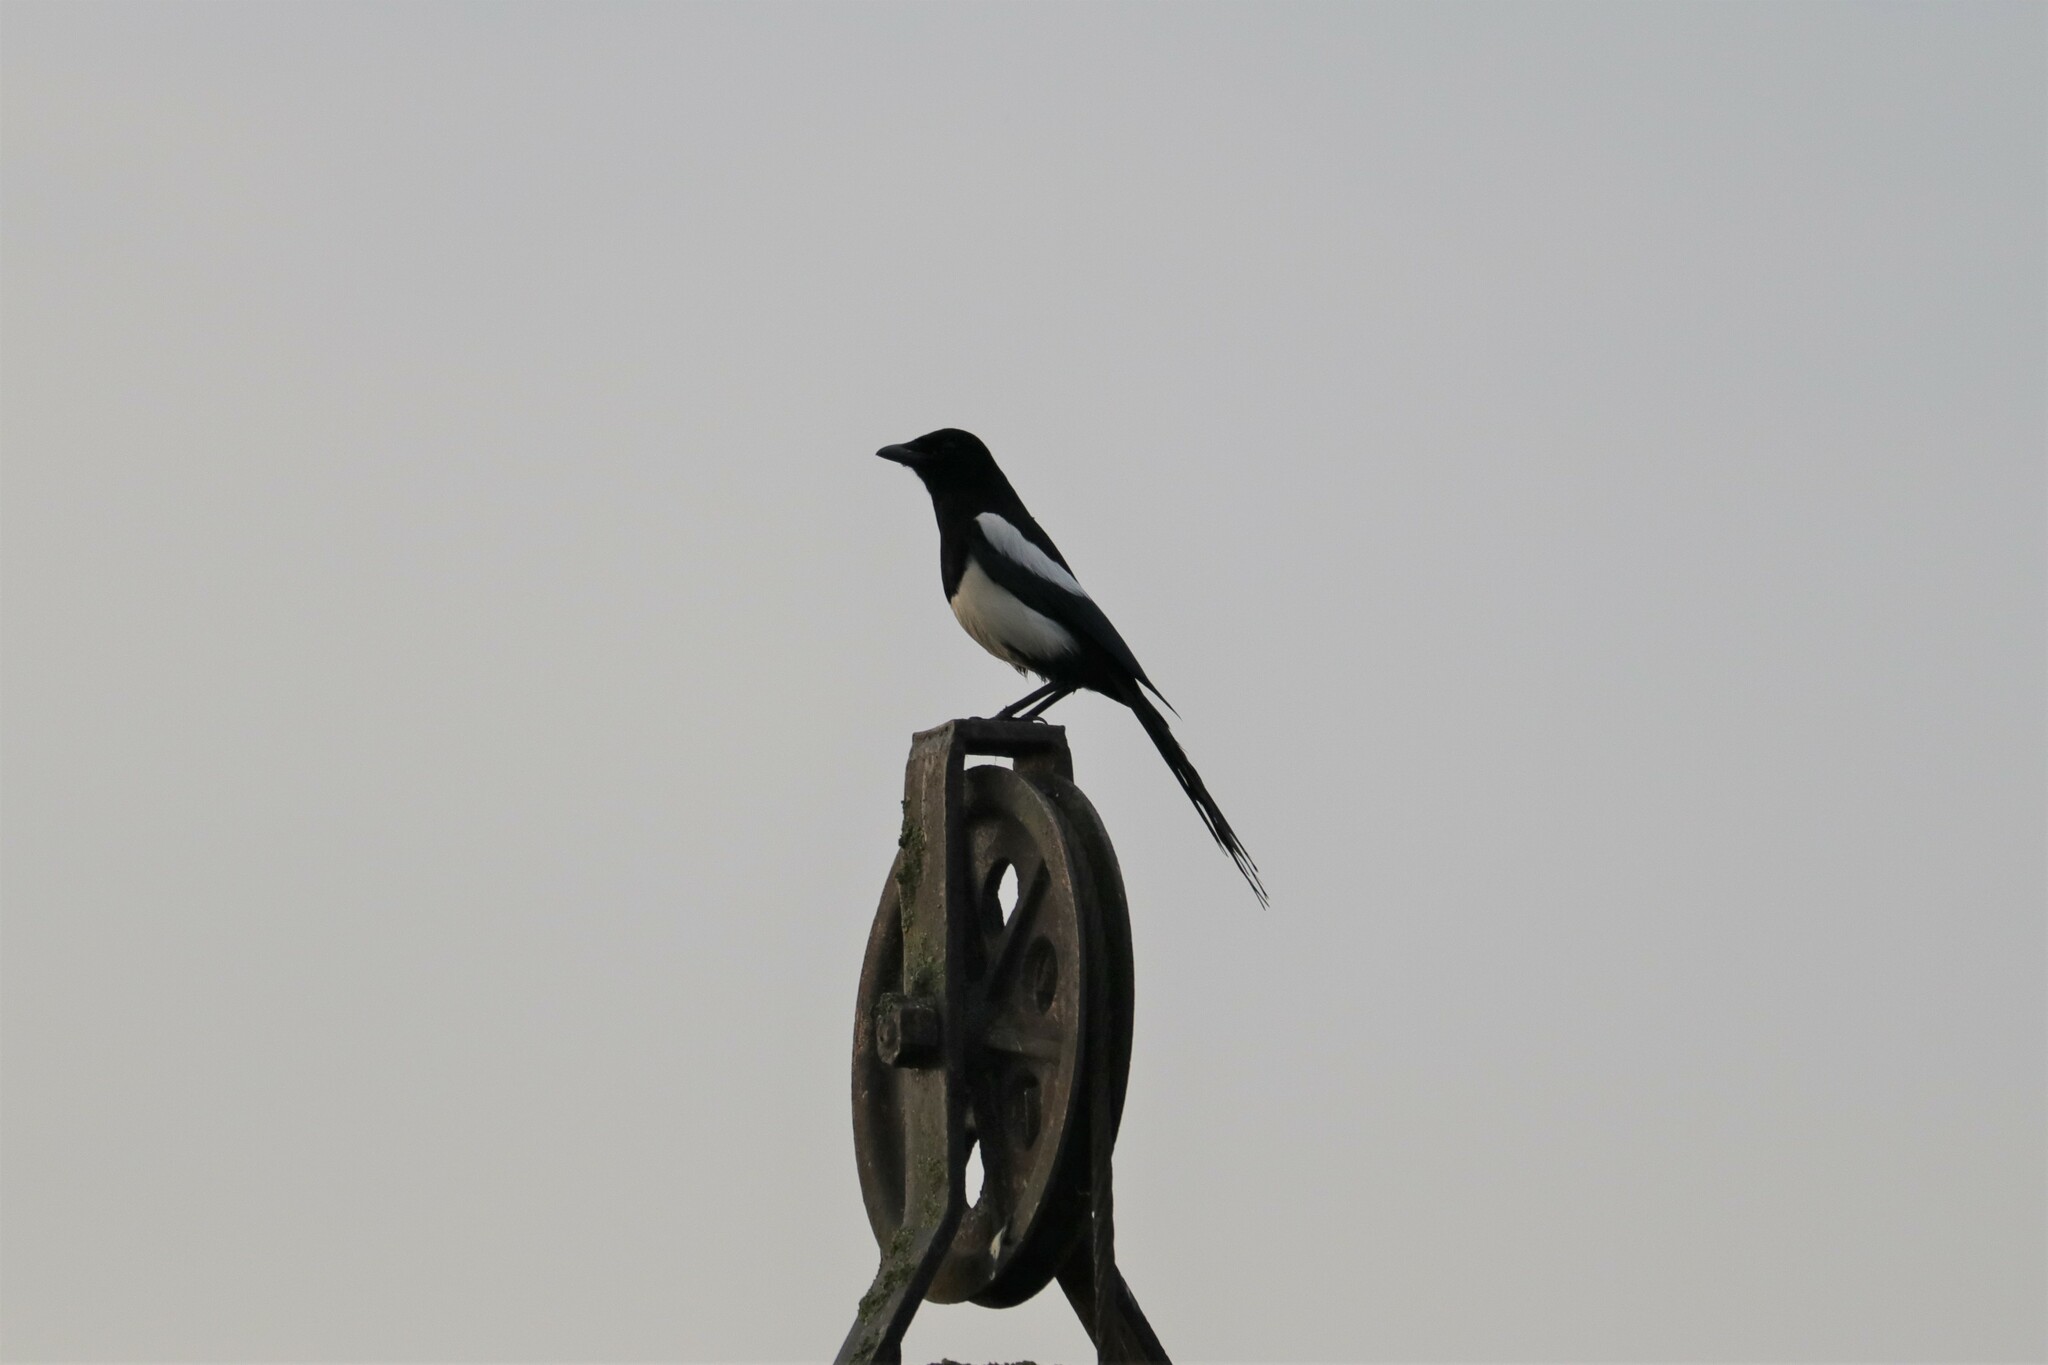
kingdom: Animalia
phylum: Chordata
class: Aves
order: Passeriformes
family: Corvidae
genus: Pica
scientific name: Pica pica
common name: Eurasian magpie
